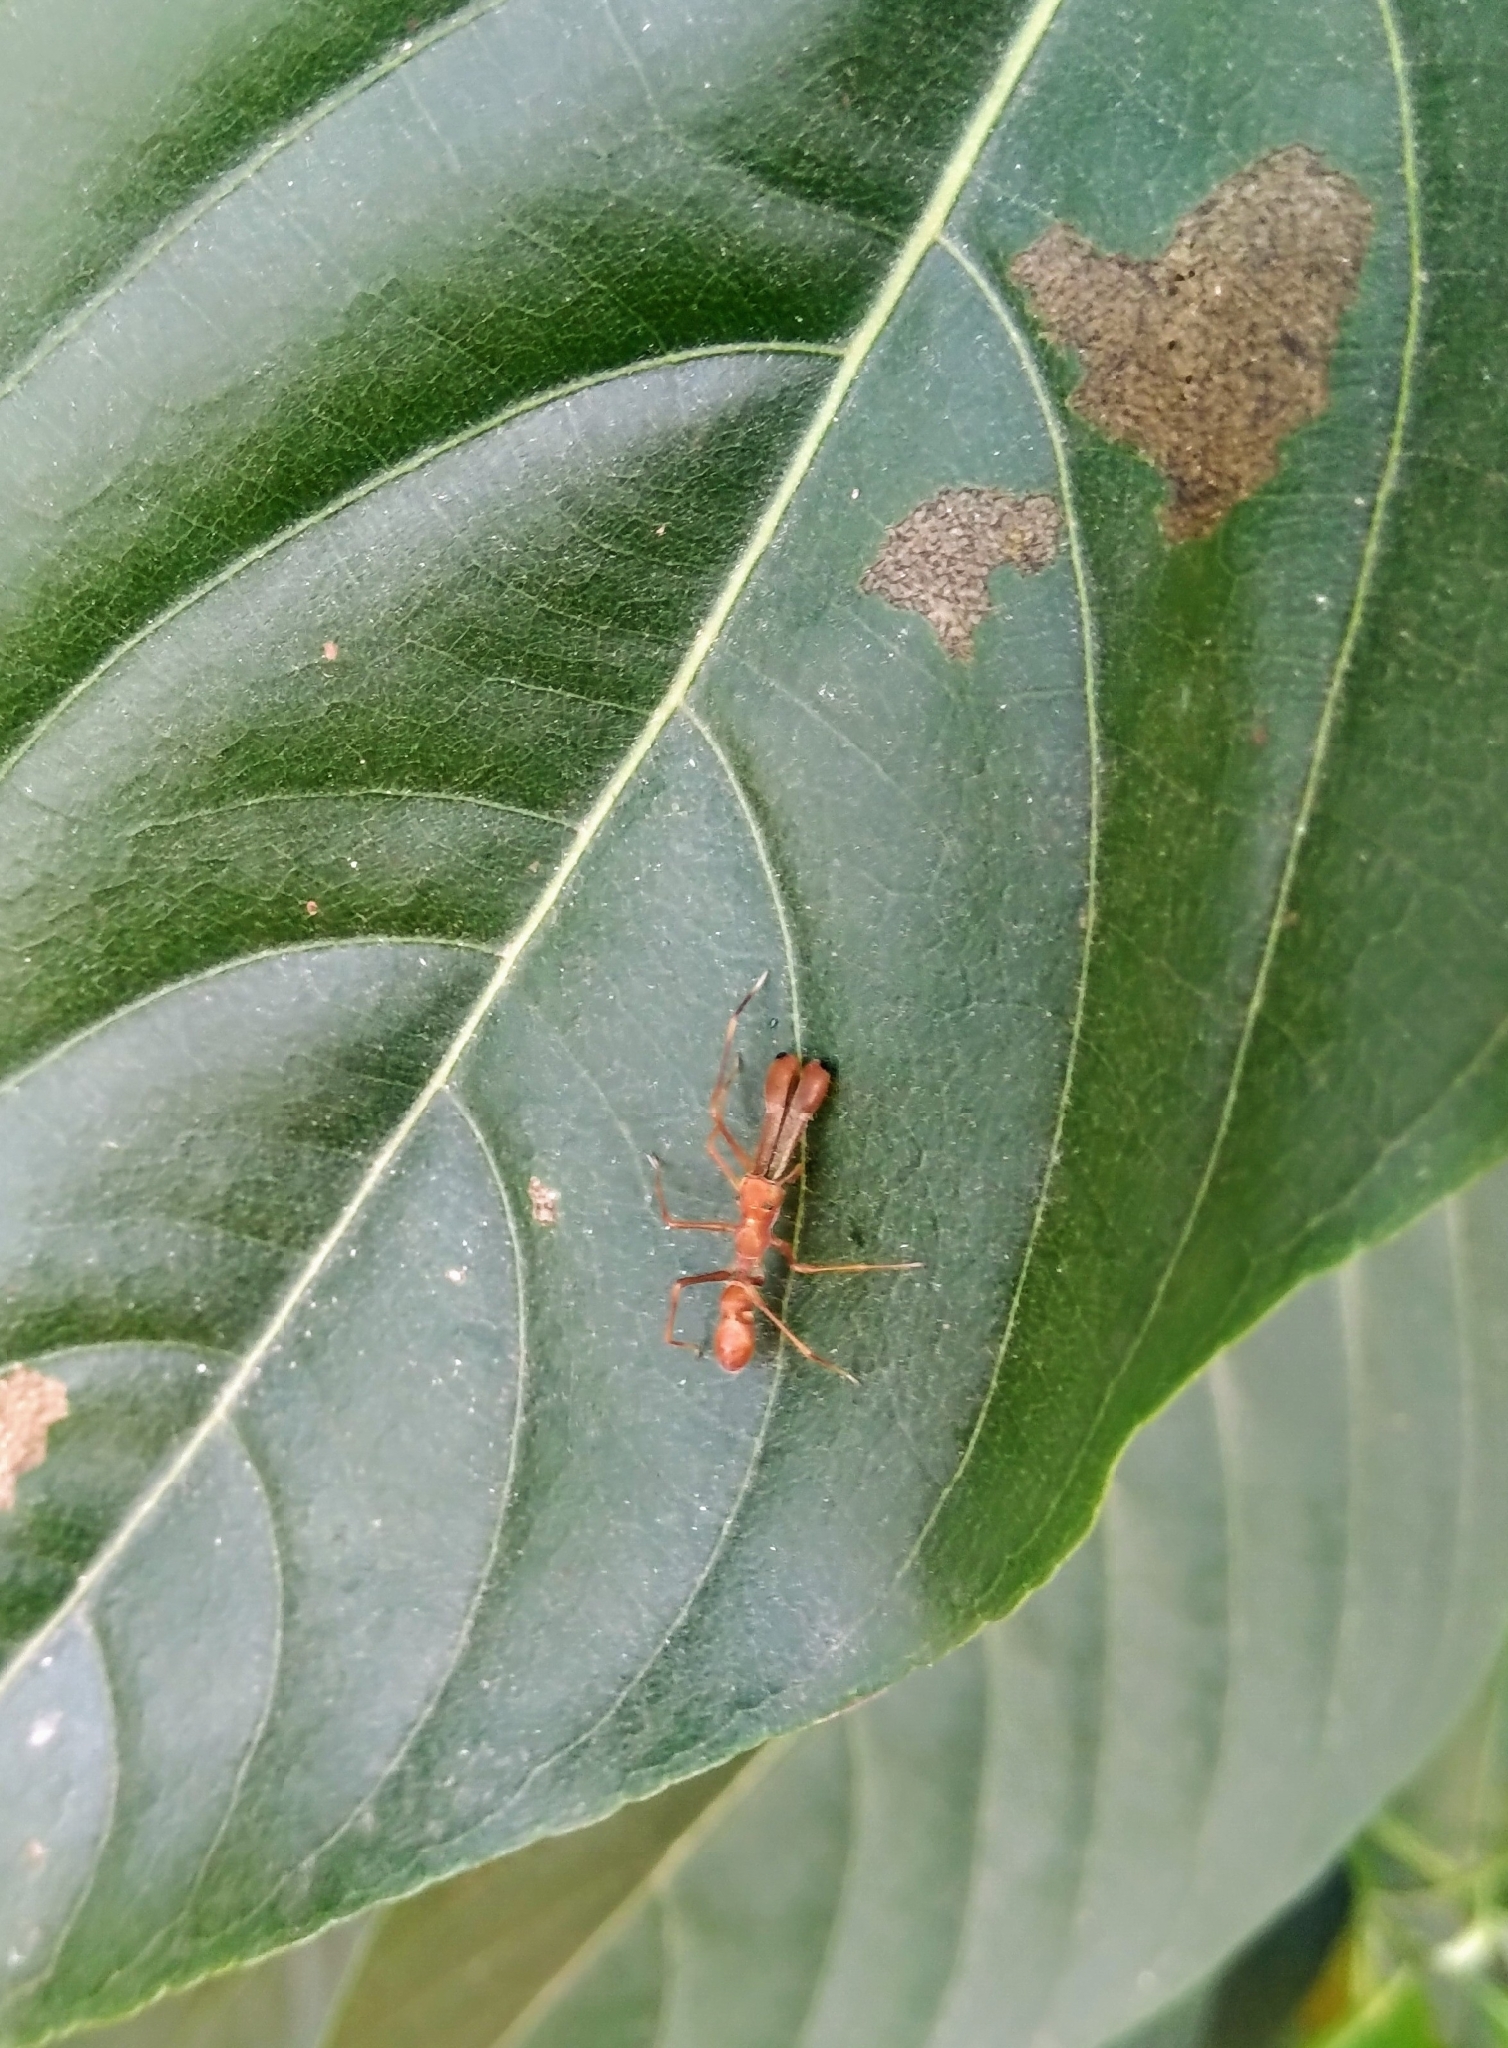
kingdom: Animalia
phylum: Arthropoda
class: Arachnida
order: Araneae
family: Salticidae
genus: Myrmaplata
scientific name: Myrmaplata plataleoides
